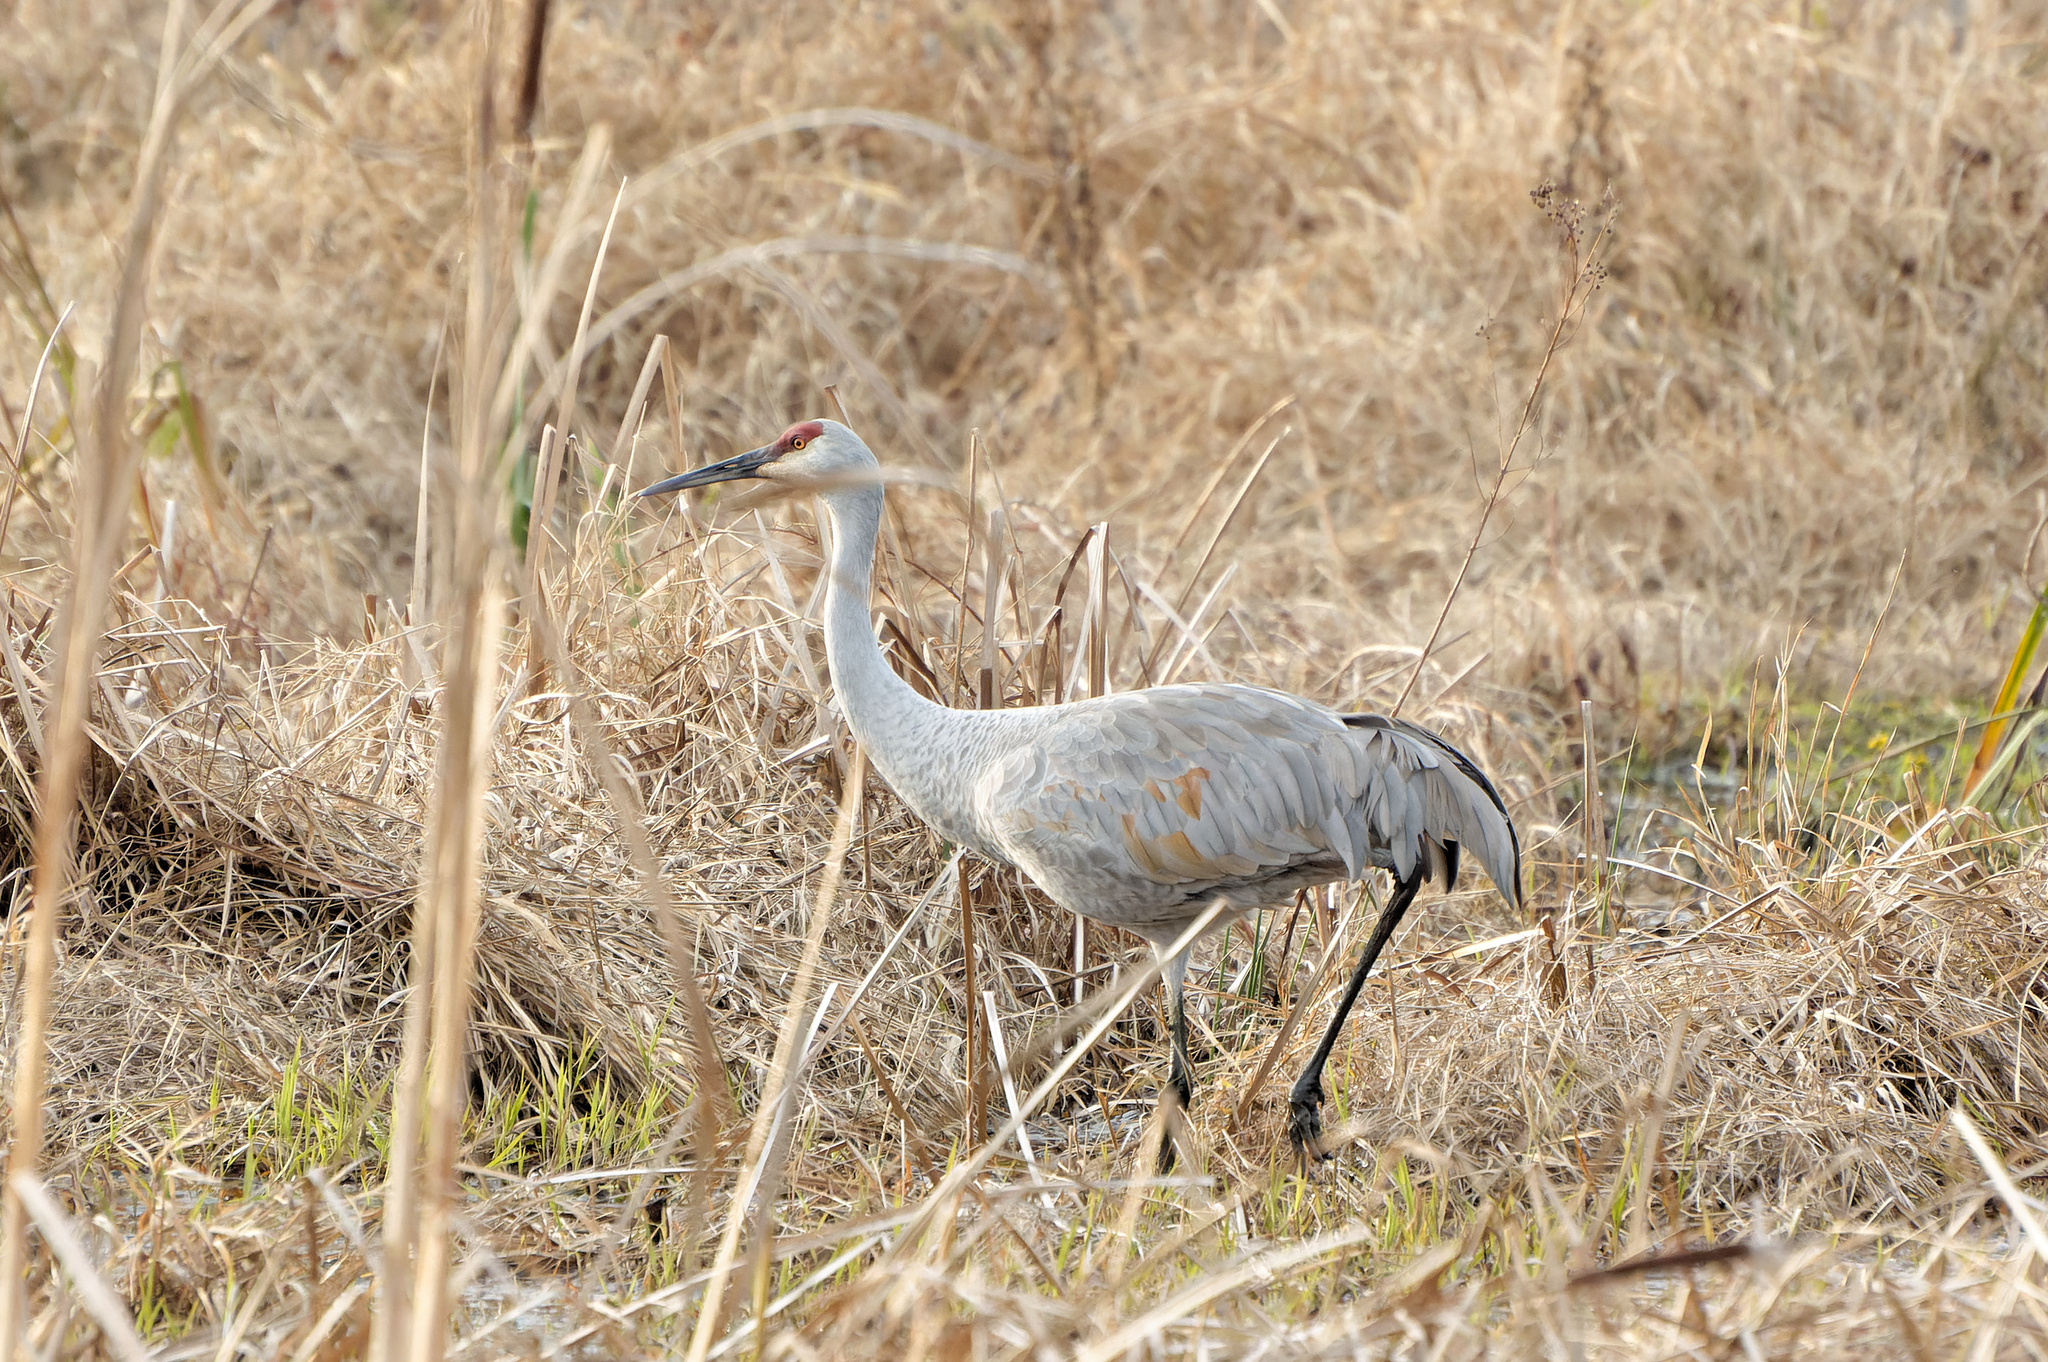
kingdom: Animalia
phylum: Chordata
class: Aves
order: Gruiformes
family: Gruidae
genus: Grus
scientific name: Grus canadensis
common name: Sandhill crane
